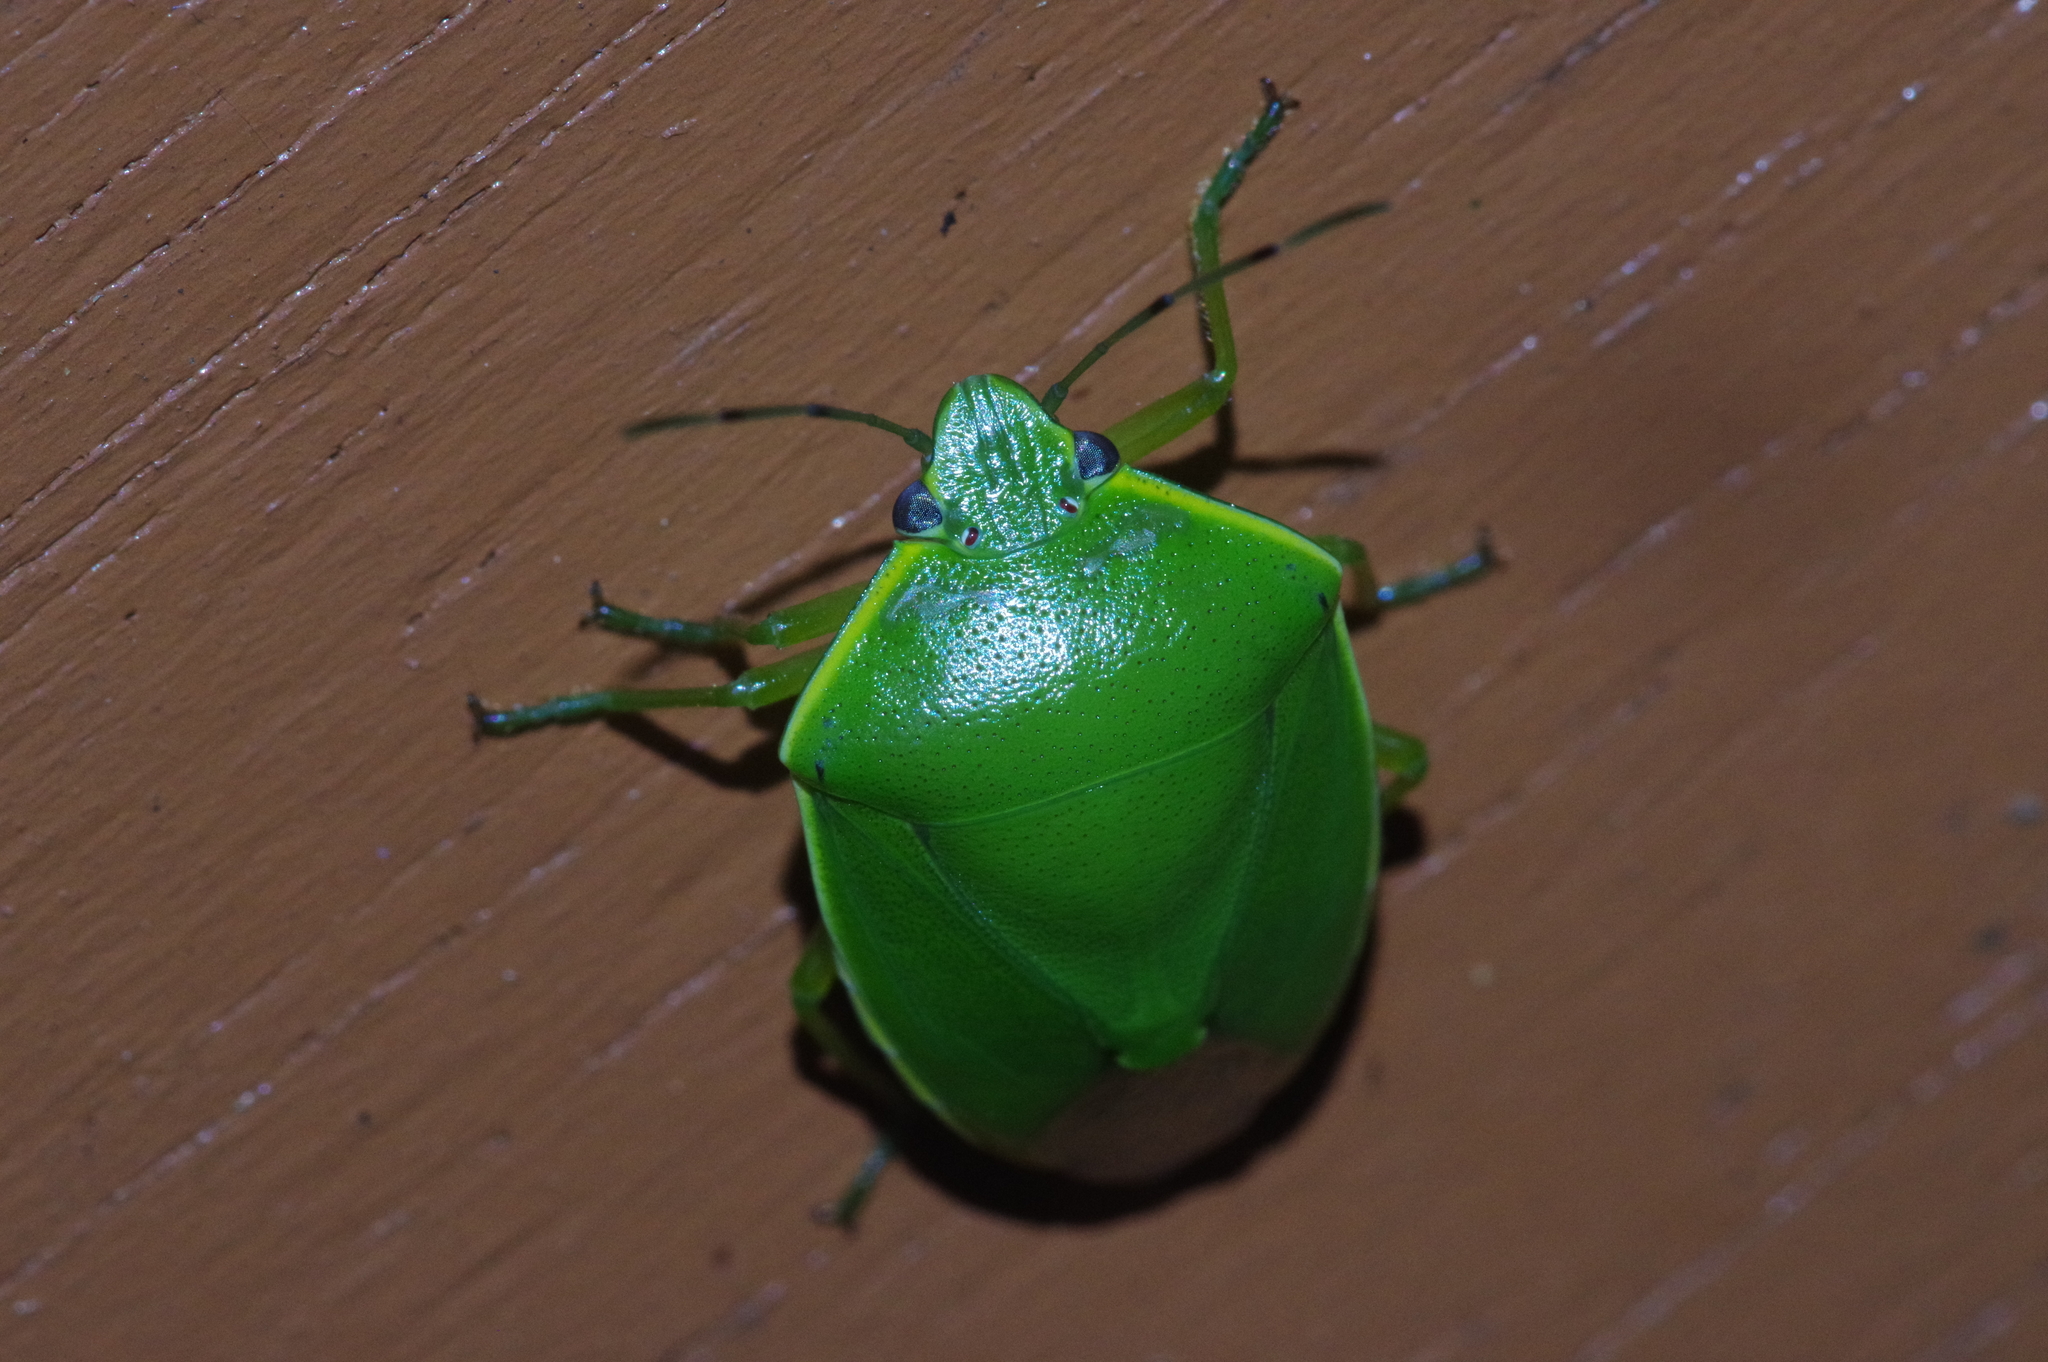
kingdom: Animalia
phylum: Arthropoda
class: Insecta
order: Hemiptera
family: Pentatomidae
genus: Glaucias
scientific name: Glaucias subpunctatus
